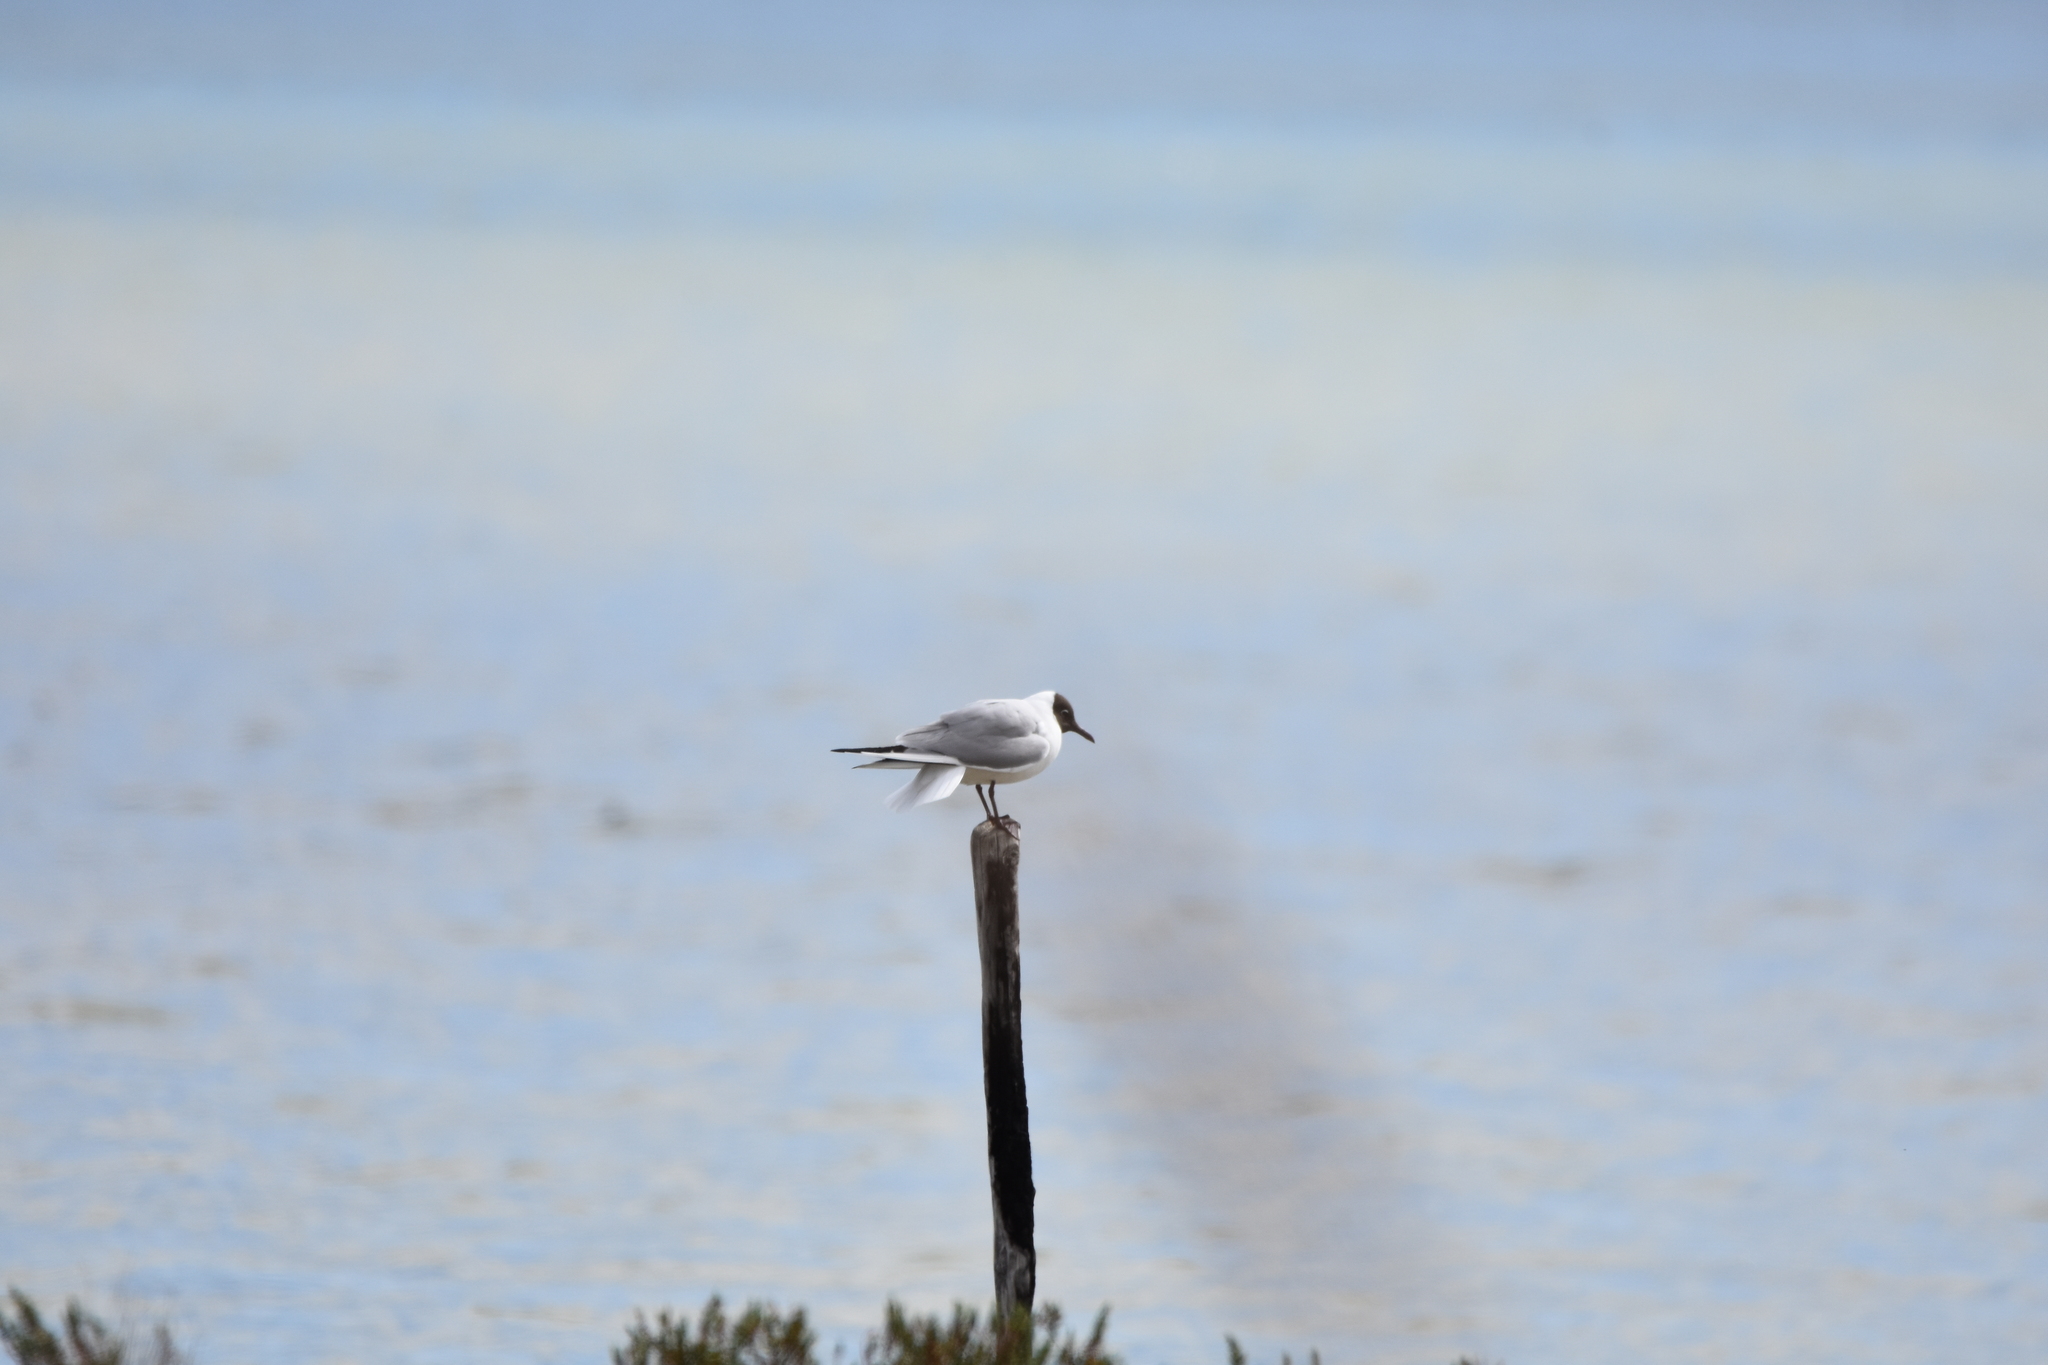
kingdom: Animalia
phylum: Chordata
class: Aves
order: Charadriiformes
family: Laridae
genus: Chroicocephalus
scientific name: Chroicocephalus ridibundus
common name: Black-headed gull
